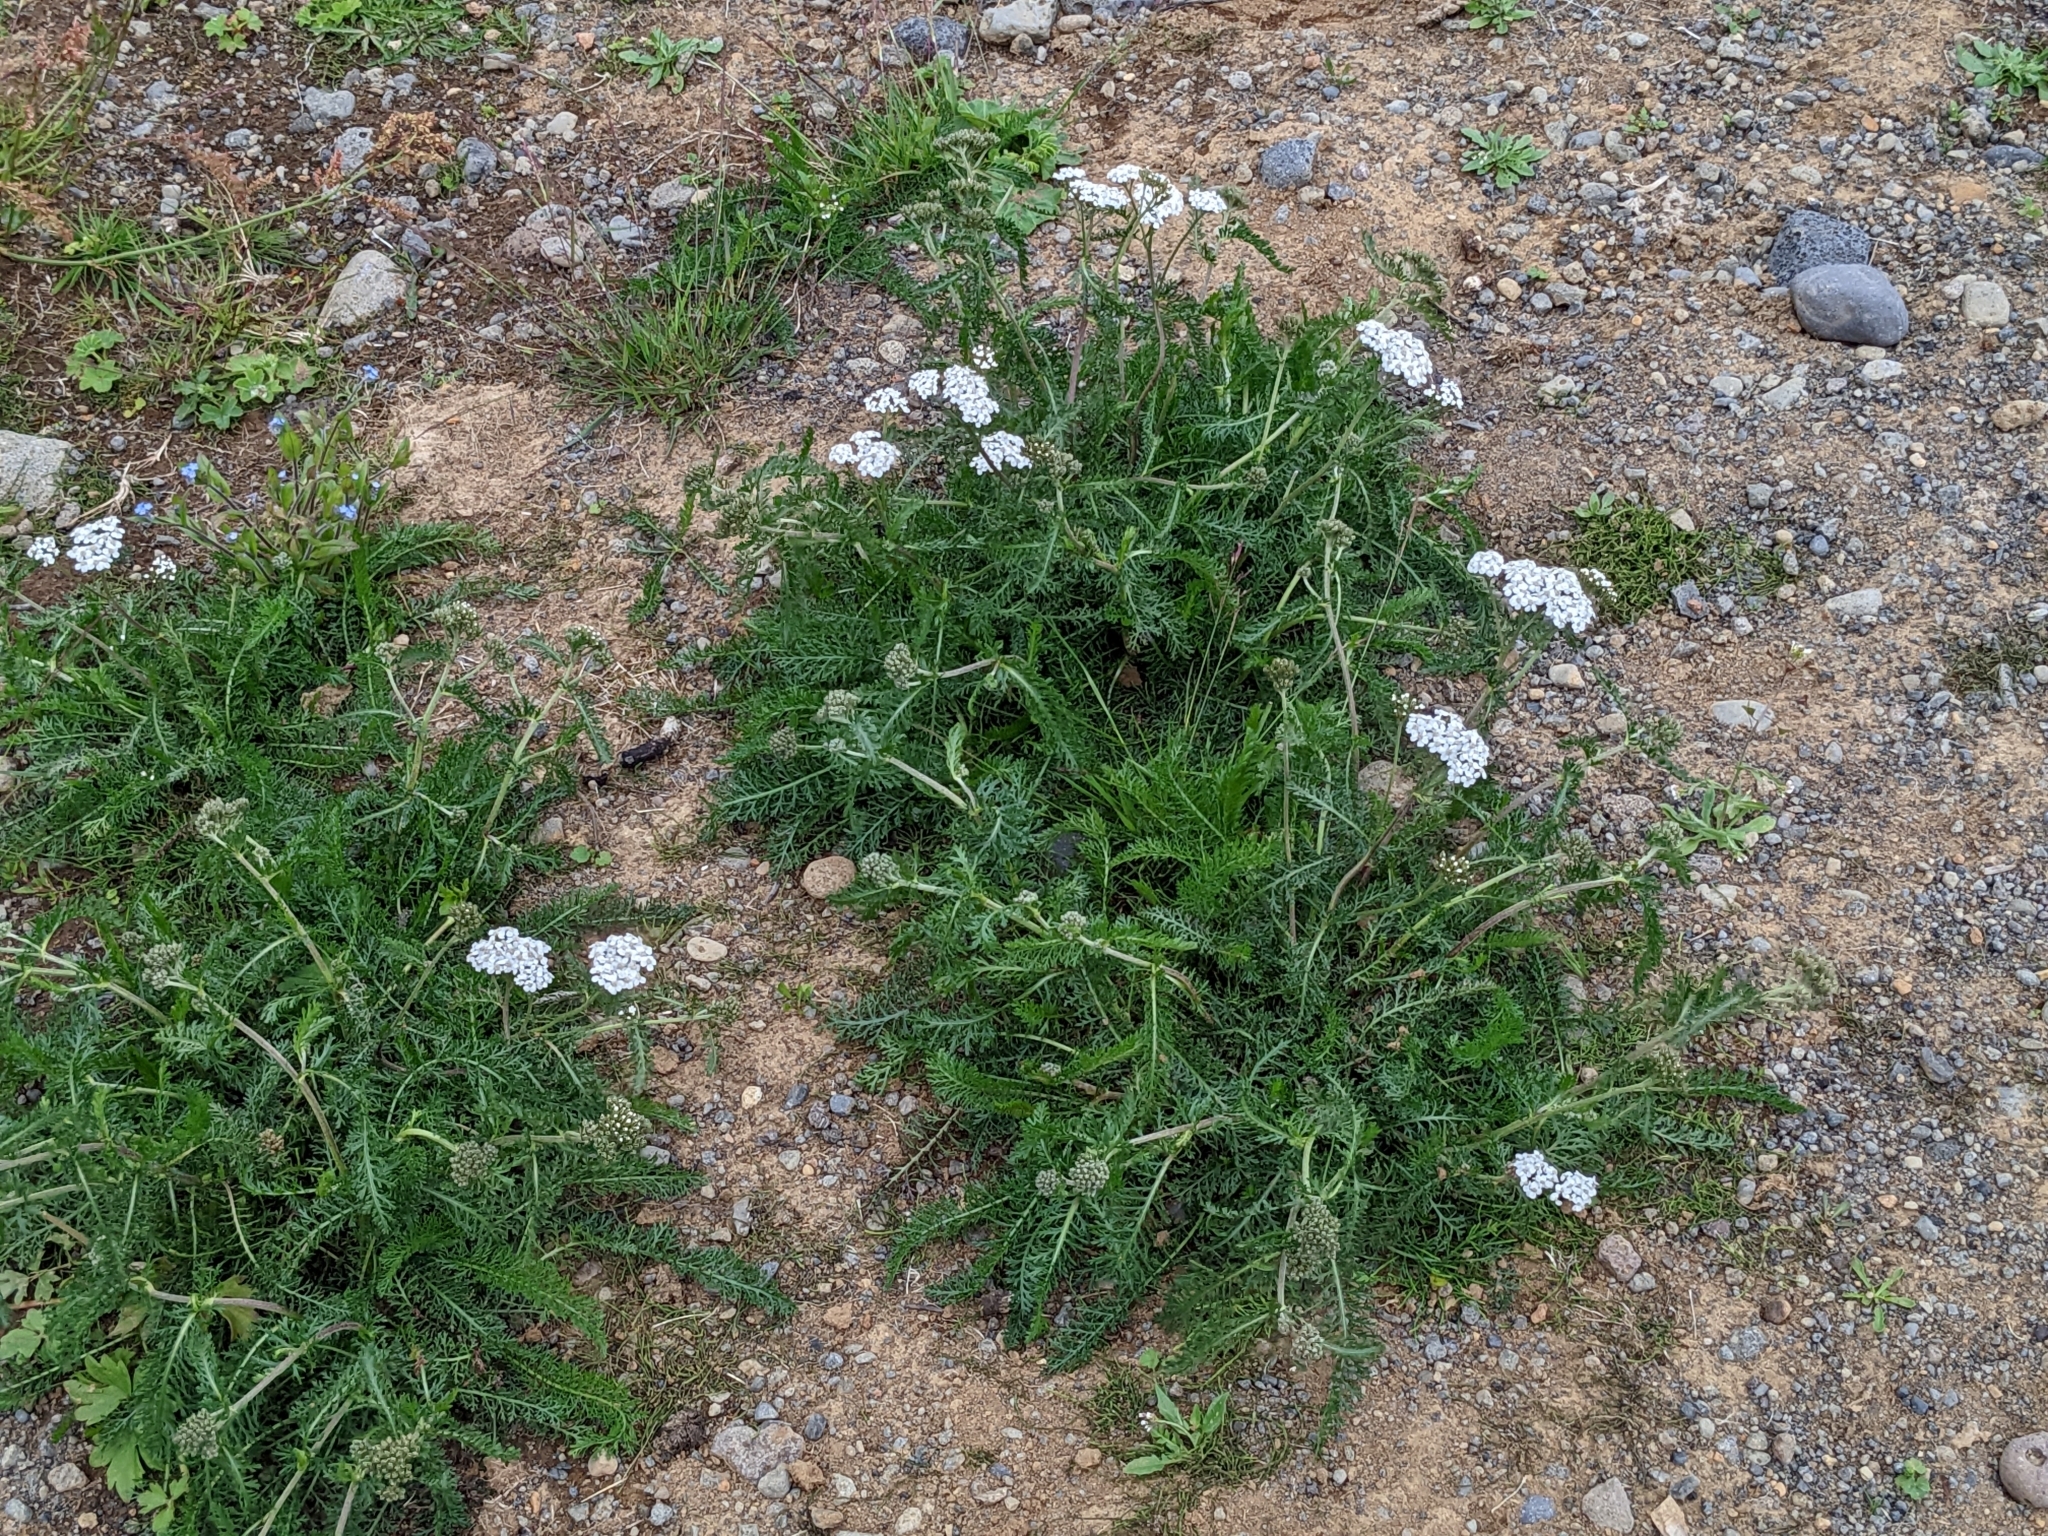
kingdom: Plantae
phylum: Tracheophyta
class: Magnoliopsida
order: Asterales
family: Asteraceae
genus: Achillea
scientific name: Achillea millefolium
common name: Yarrow
